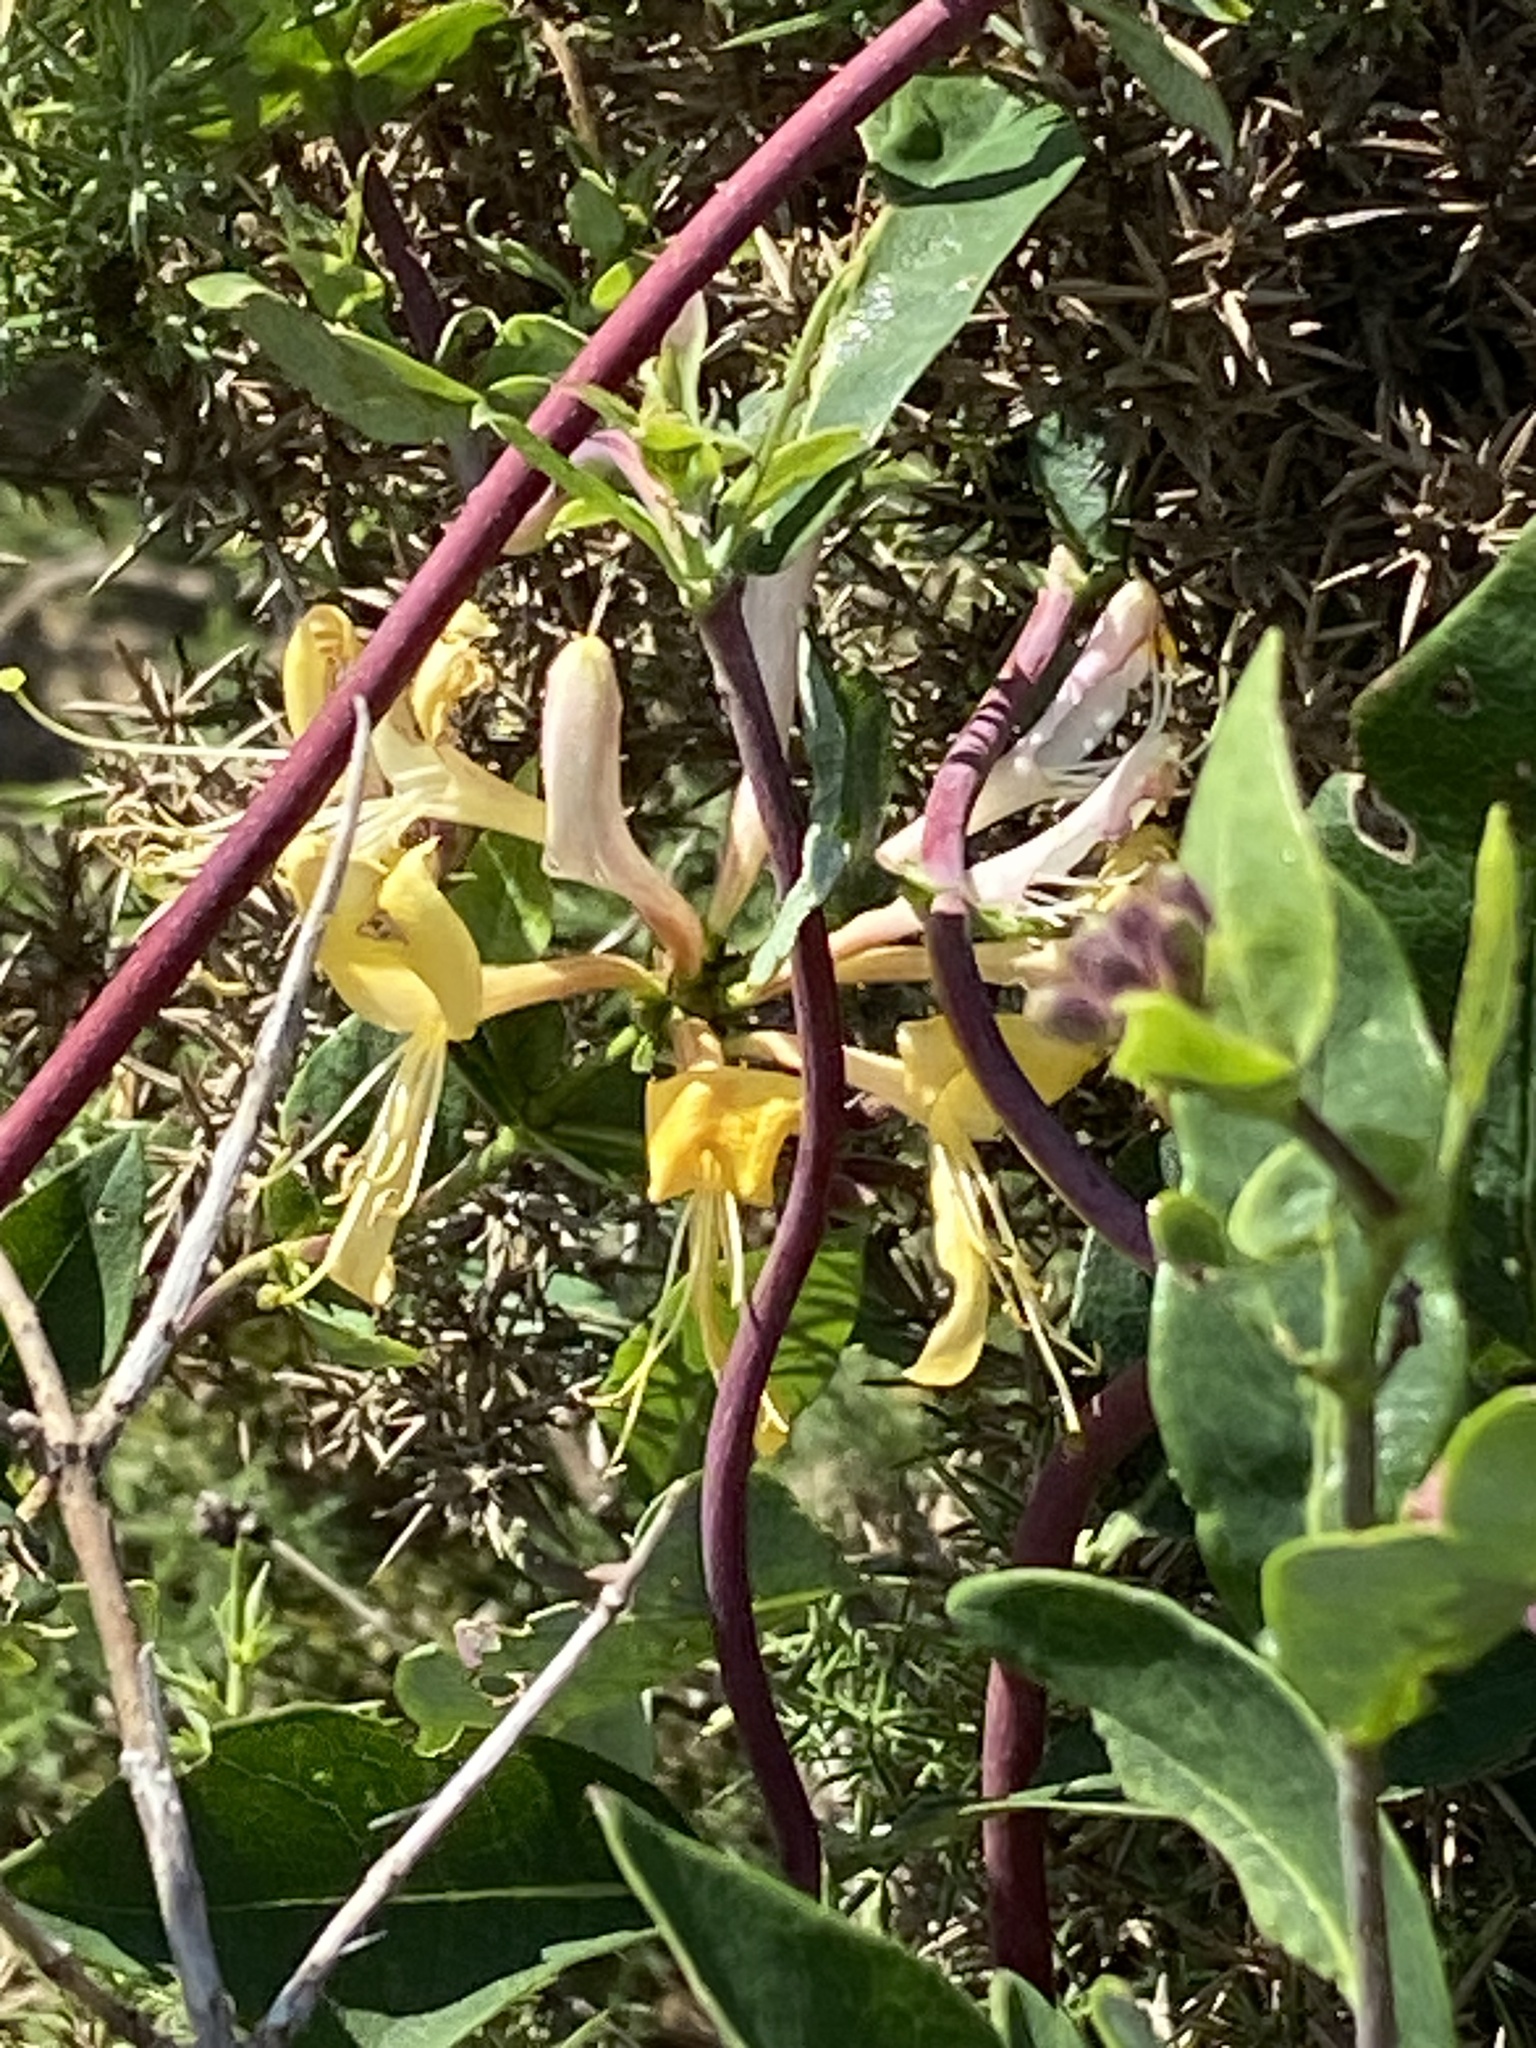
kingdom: Plantae
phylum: Tracheophyta
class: Magnoliopsida
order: Dipsacales
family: Caprifoliaceae
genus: Lonicera
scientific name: Lonicera periclymenum
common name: European honeysuckle
